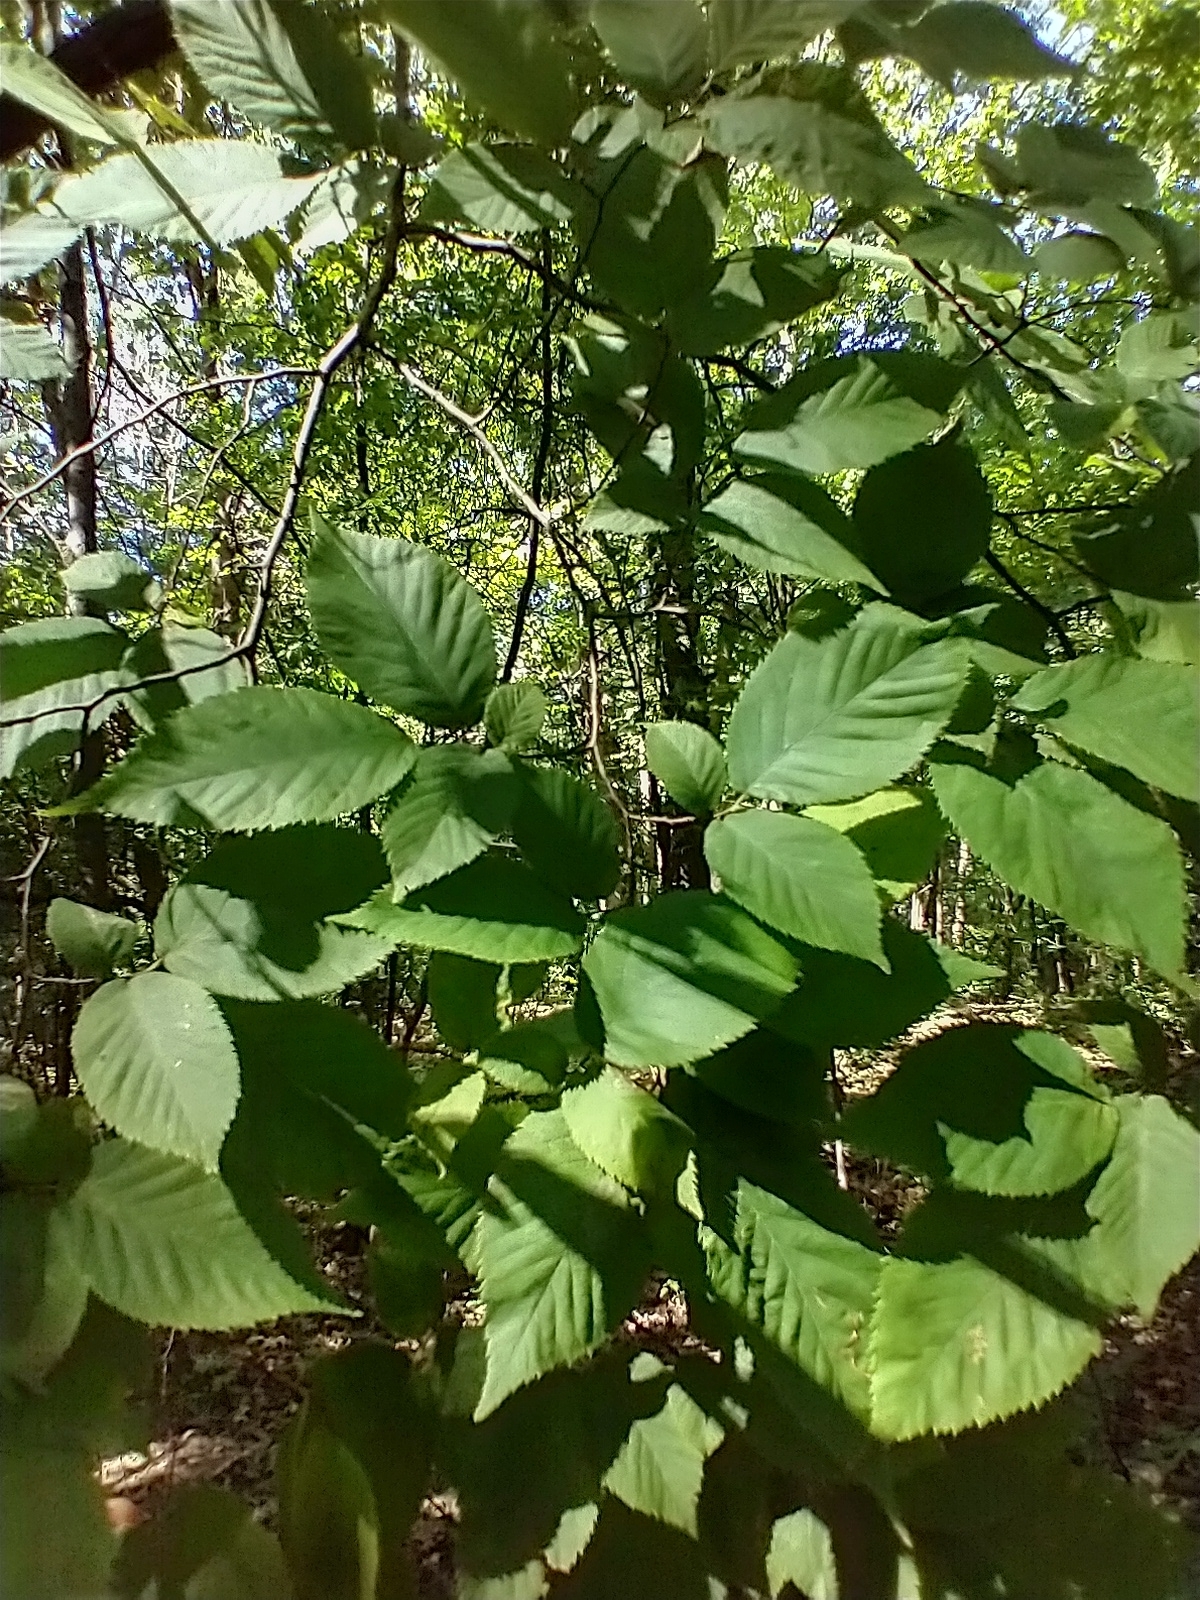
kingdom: Plantae
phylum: Tracheophyta
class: Magnoliopsida
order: Fagales
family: Betulaceae
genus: Ostrya
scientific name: Ostrya virginiana
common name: Ironwood
